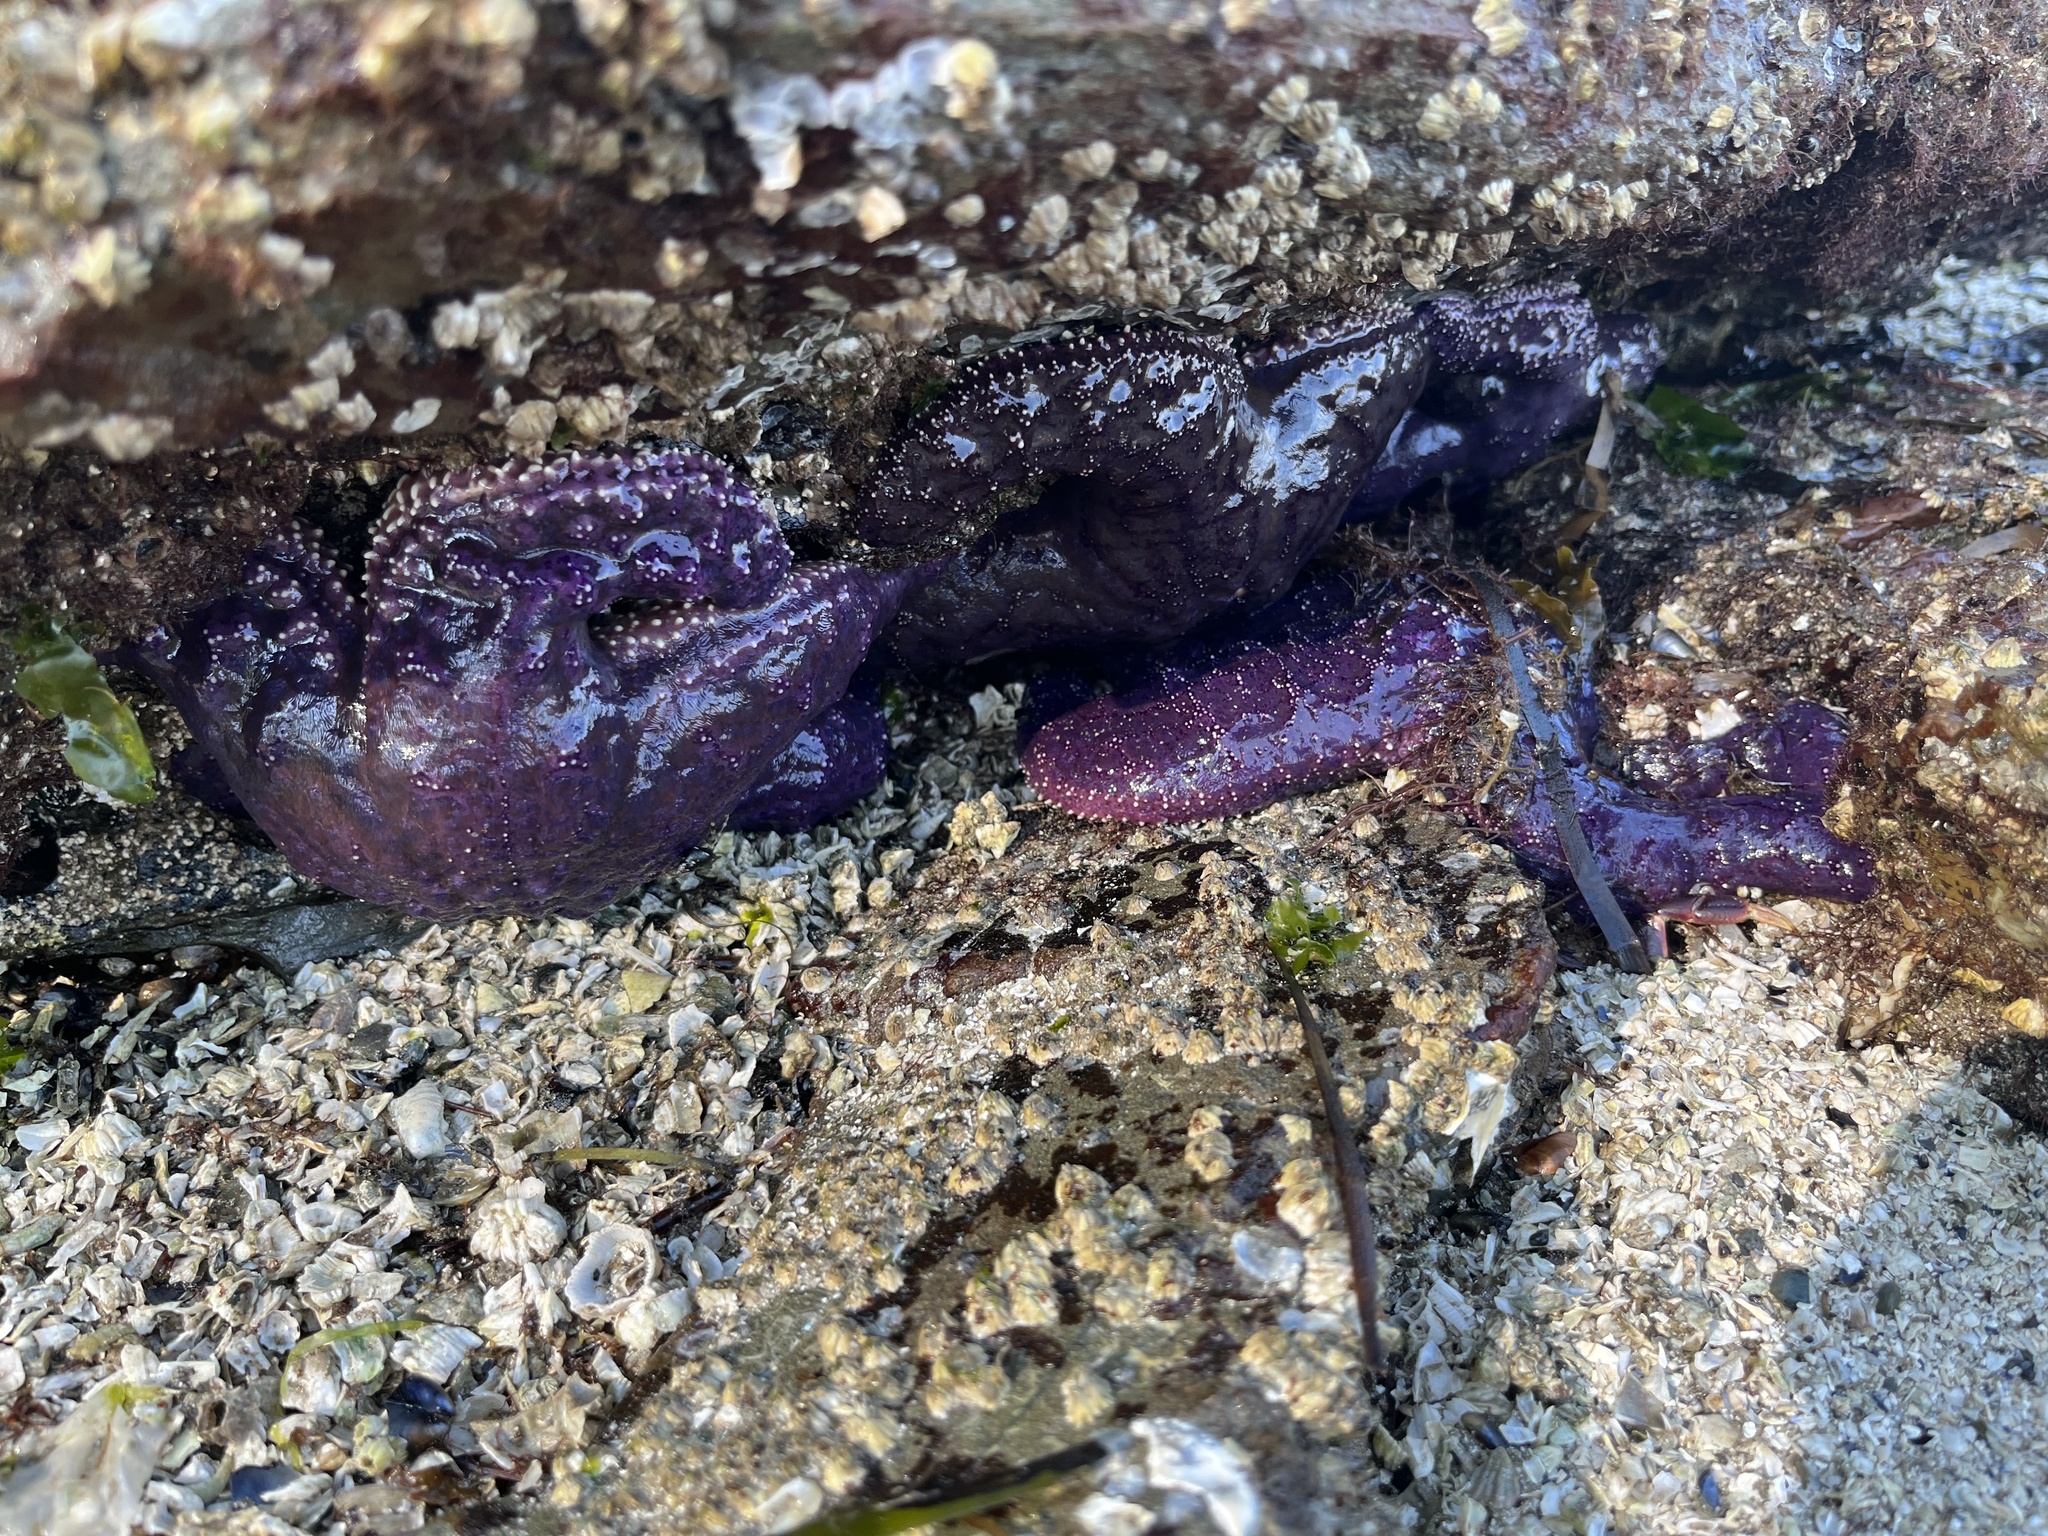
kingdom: Animalia
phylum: Echinodermata
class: Asteroidea
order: Forcipulatida
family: Asteriidae
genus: Pisaster
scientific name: Pisaster ochraceus
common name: Ochre stars
